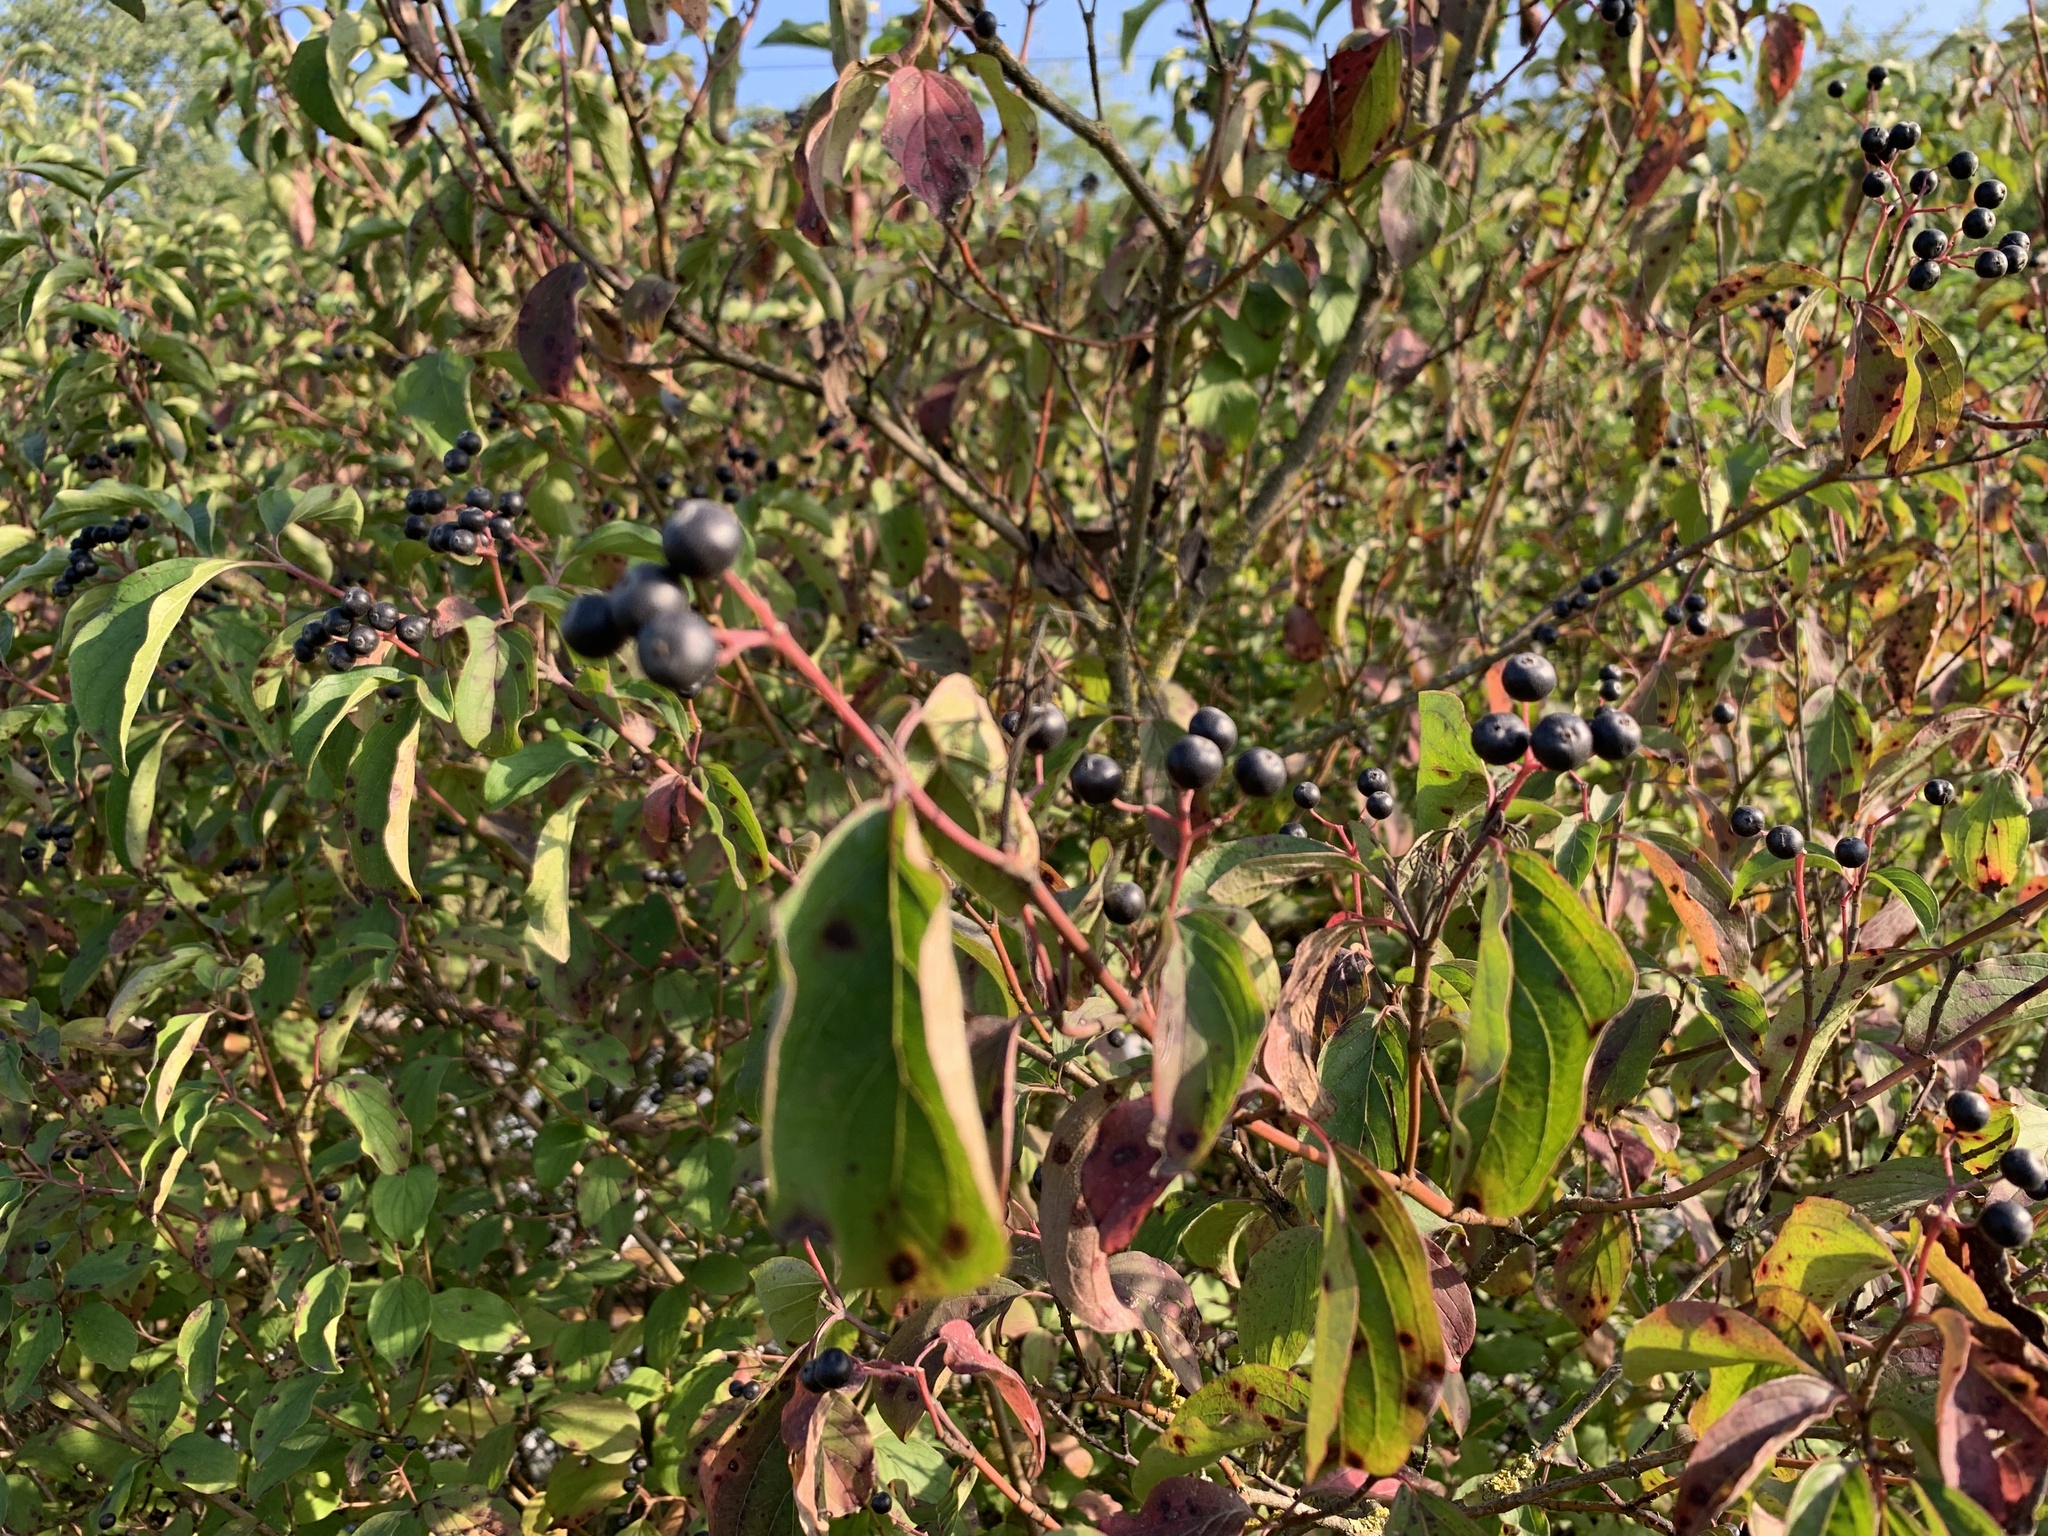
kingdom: Plantae
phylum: Tracheophyta
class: Magnoliopsida
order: Cornales
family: Cornaceae
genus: Cornus
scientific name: Cornus sanguinea
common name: Dogwood
